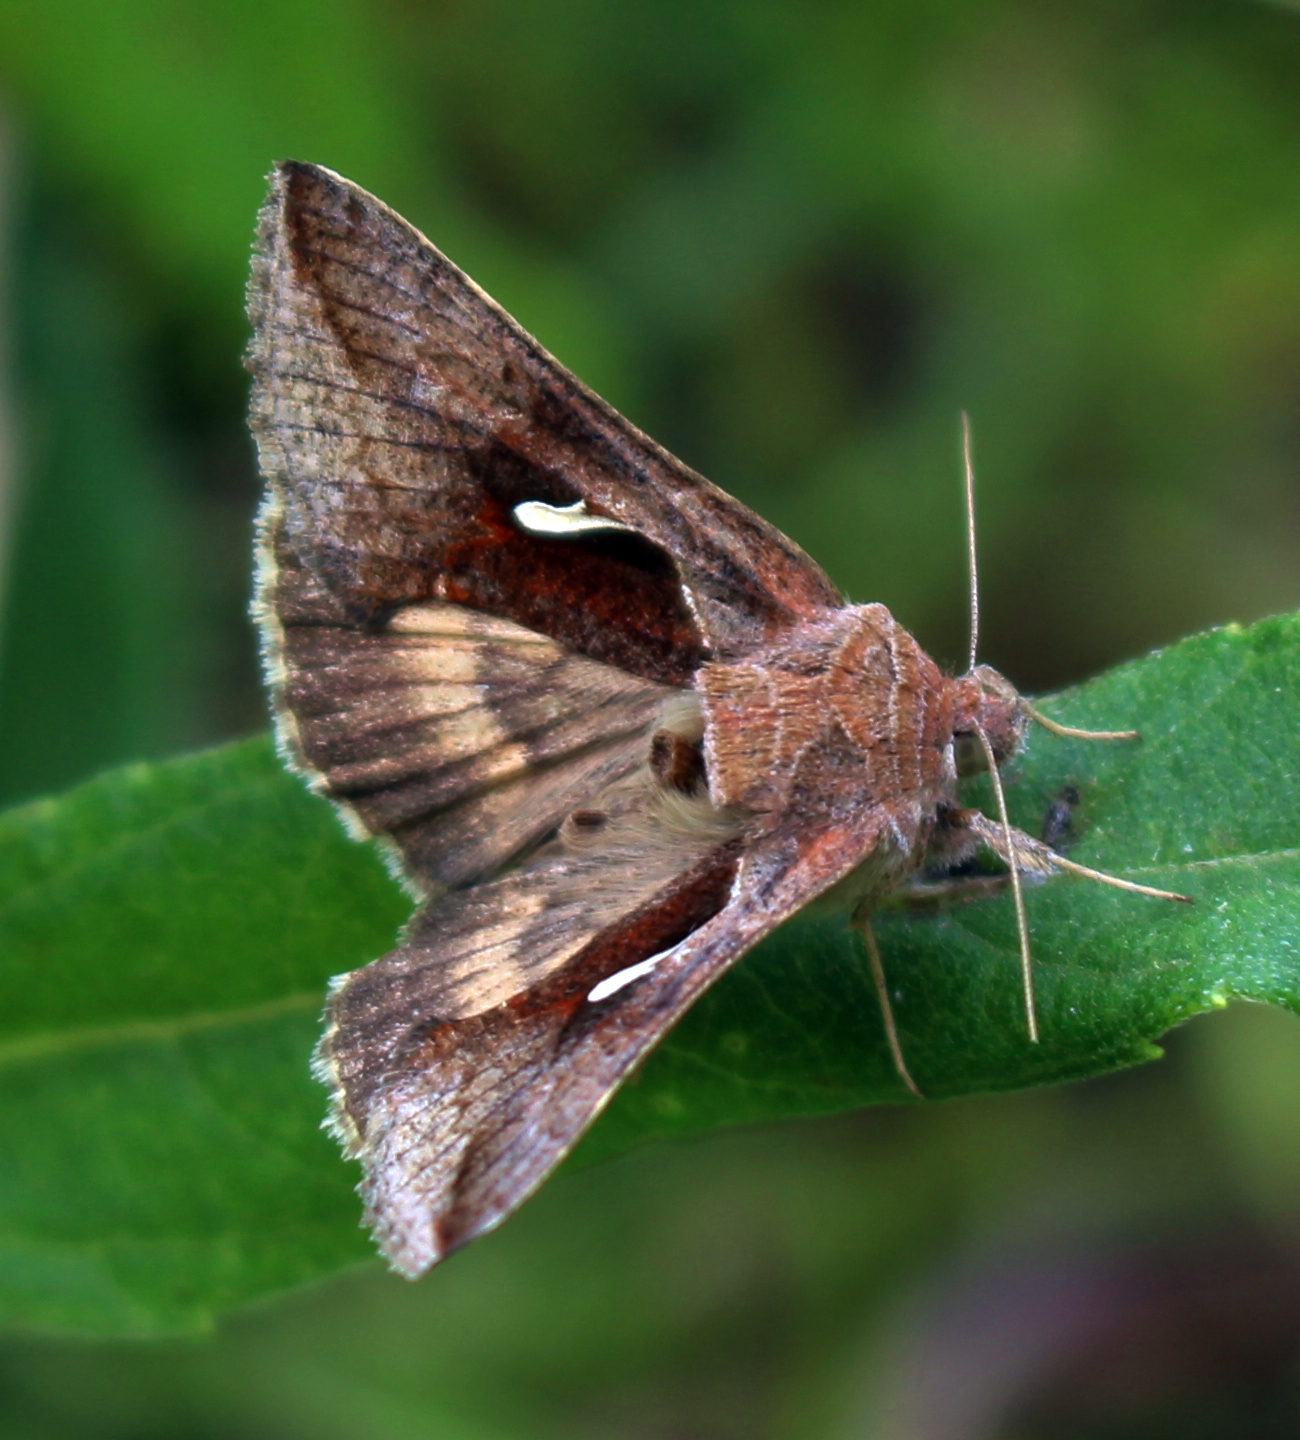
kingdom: Animalia
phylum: Arthropoda
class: Insecta
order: Lepidoptera
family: Noctuidae
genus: Anagrapha
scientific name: Anagrapha falcifera
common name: Celery looper
